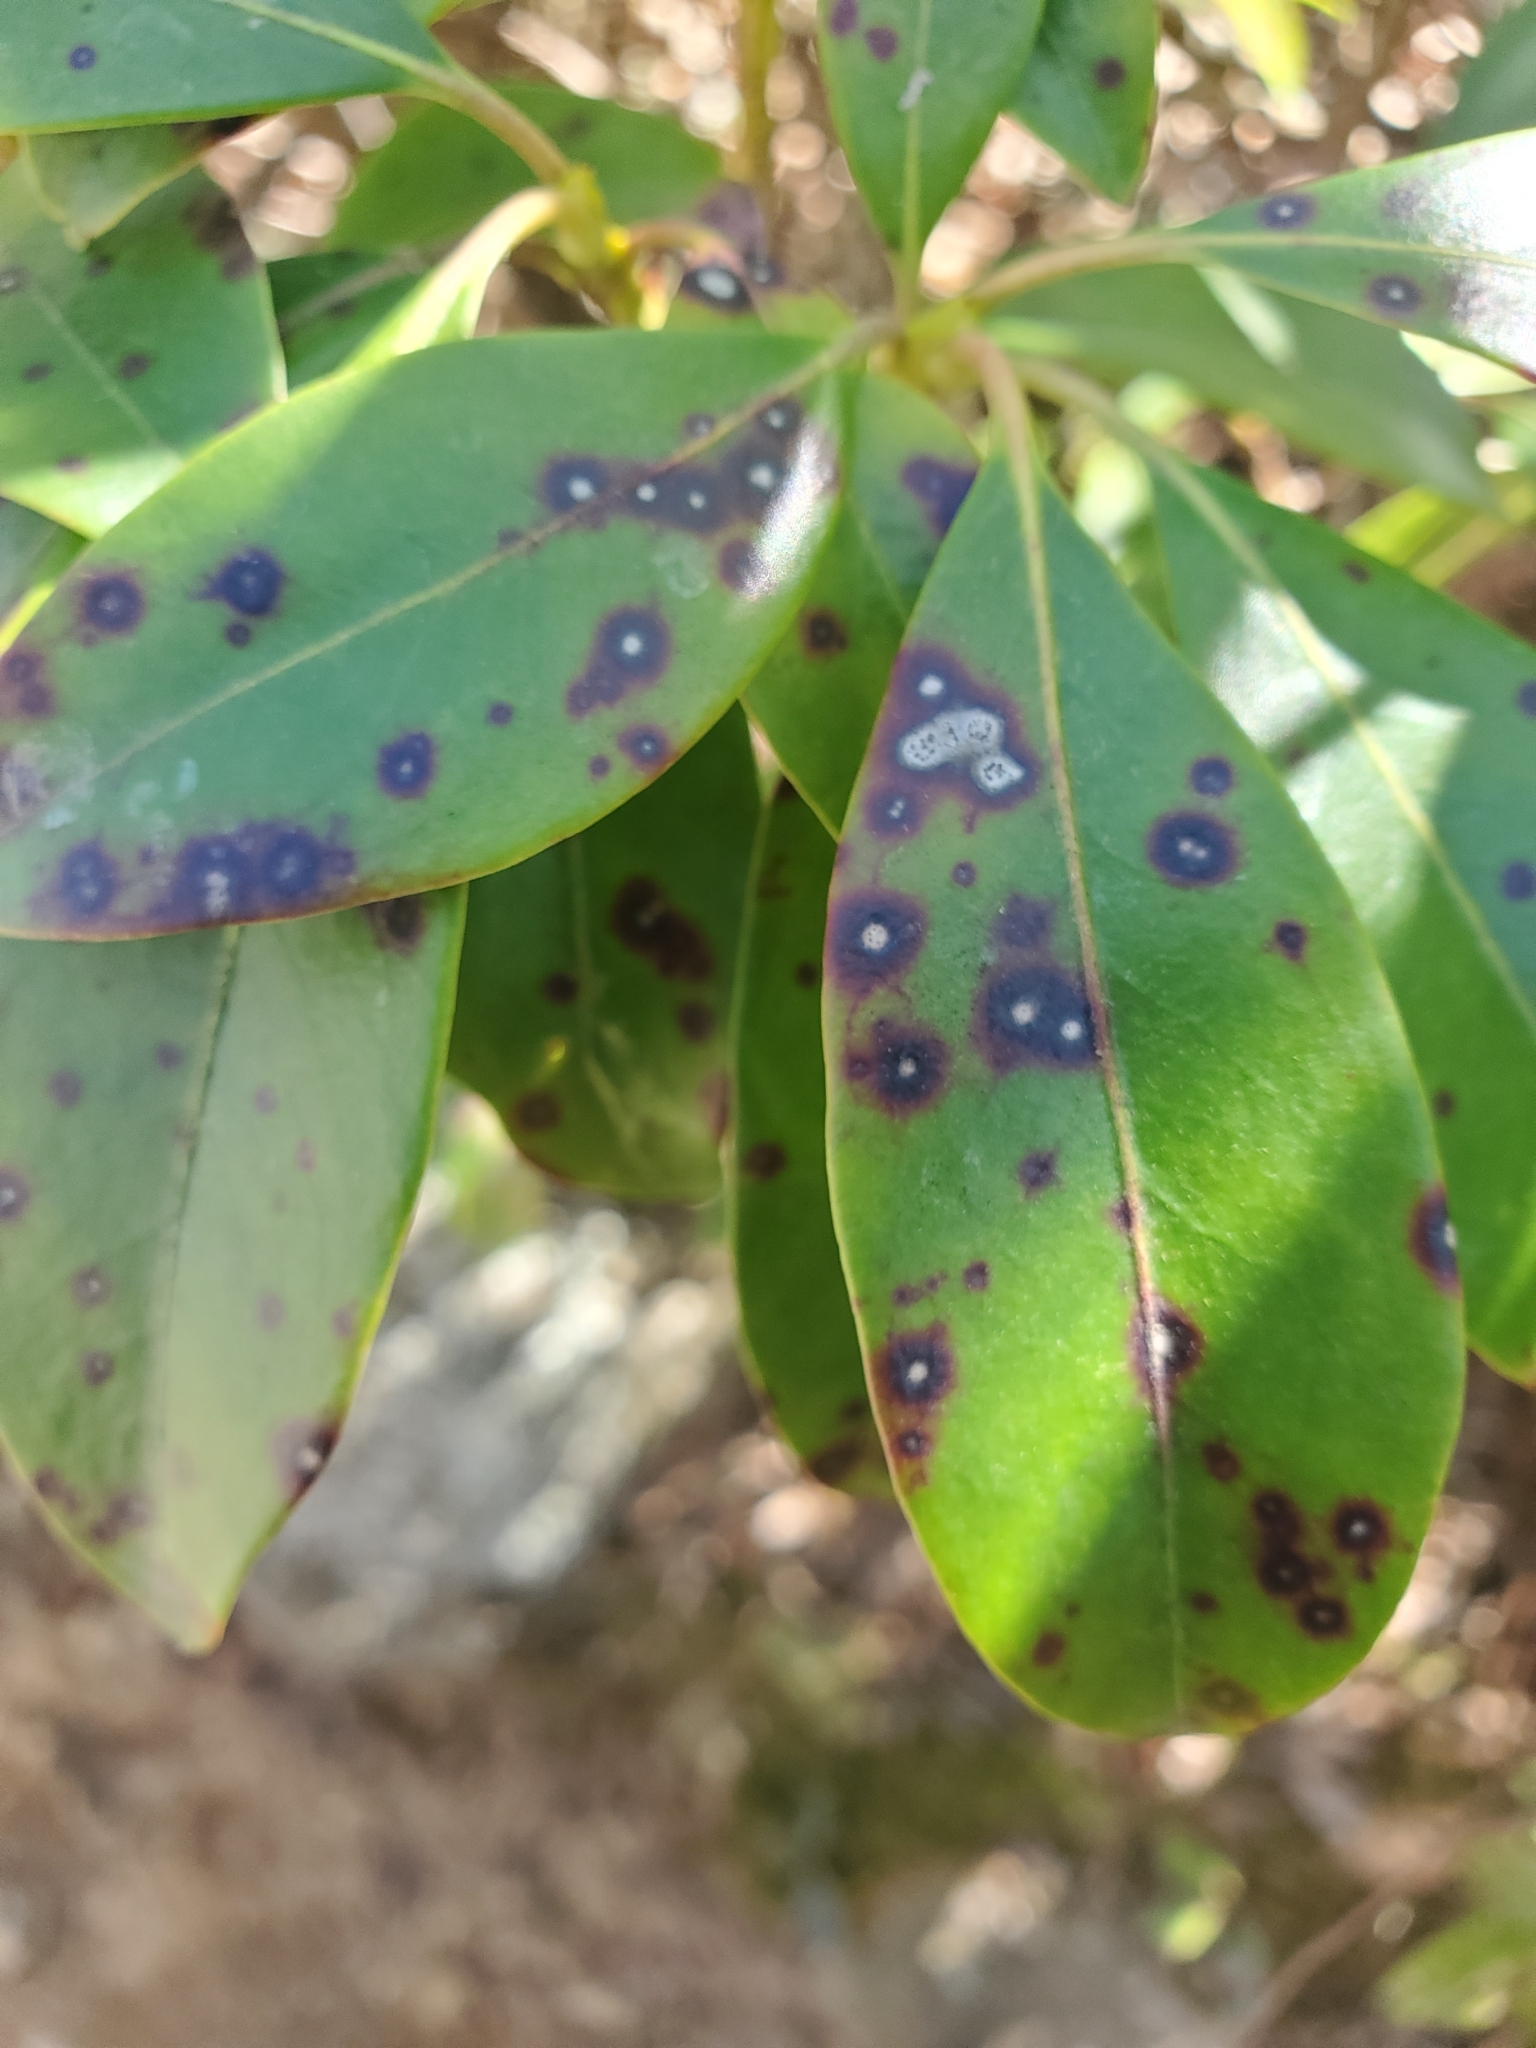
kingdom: Fungi
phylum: Ascomycota
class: Dothideomycetes
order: Mycosphaerellales
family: Mycosphaerellaceae
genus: Mycosphaerella
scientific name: Mycosphaerella colorata
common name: Mountain laurel leaf spot
